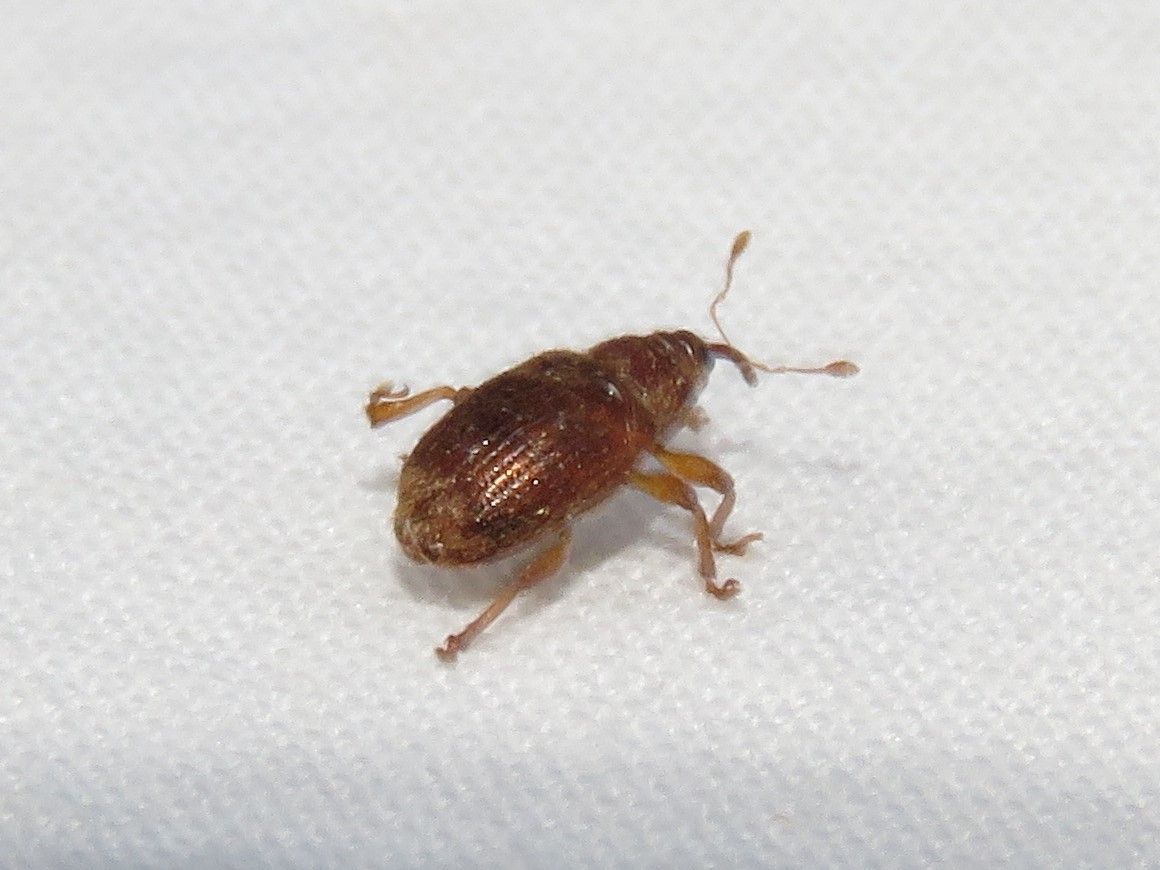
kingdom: Animalia
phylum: Arthropoda
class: Insecta
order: Coleoptera
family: Curculionidae
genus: Thysanocnemis
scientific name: Thysanocnemis bischoffi
